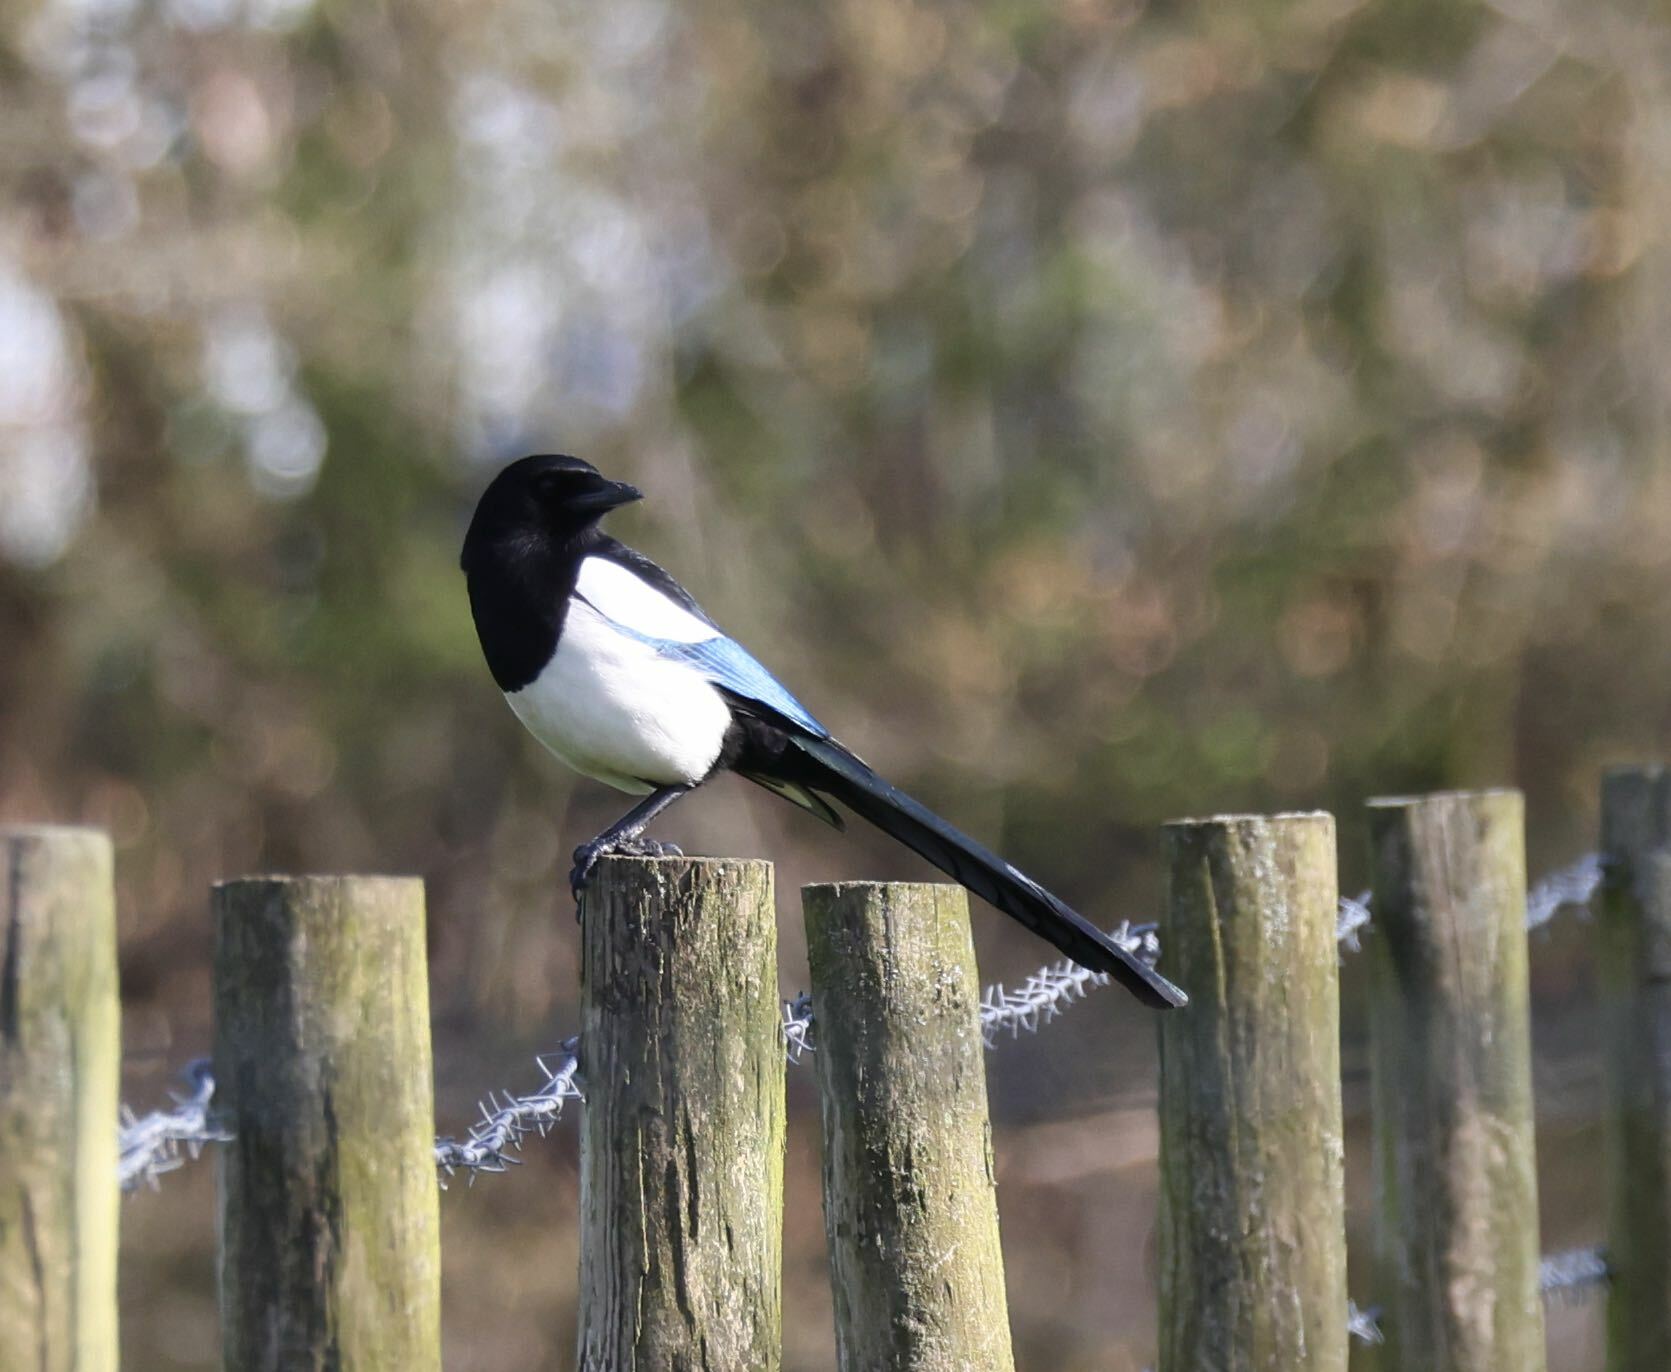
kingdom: Animalia
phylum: Chordata
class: Aves
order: Passeriformes
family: Corvidae
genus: Pica
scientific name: Pica pica
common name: Eurasian magpie
